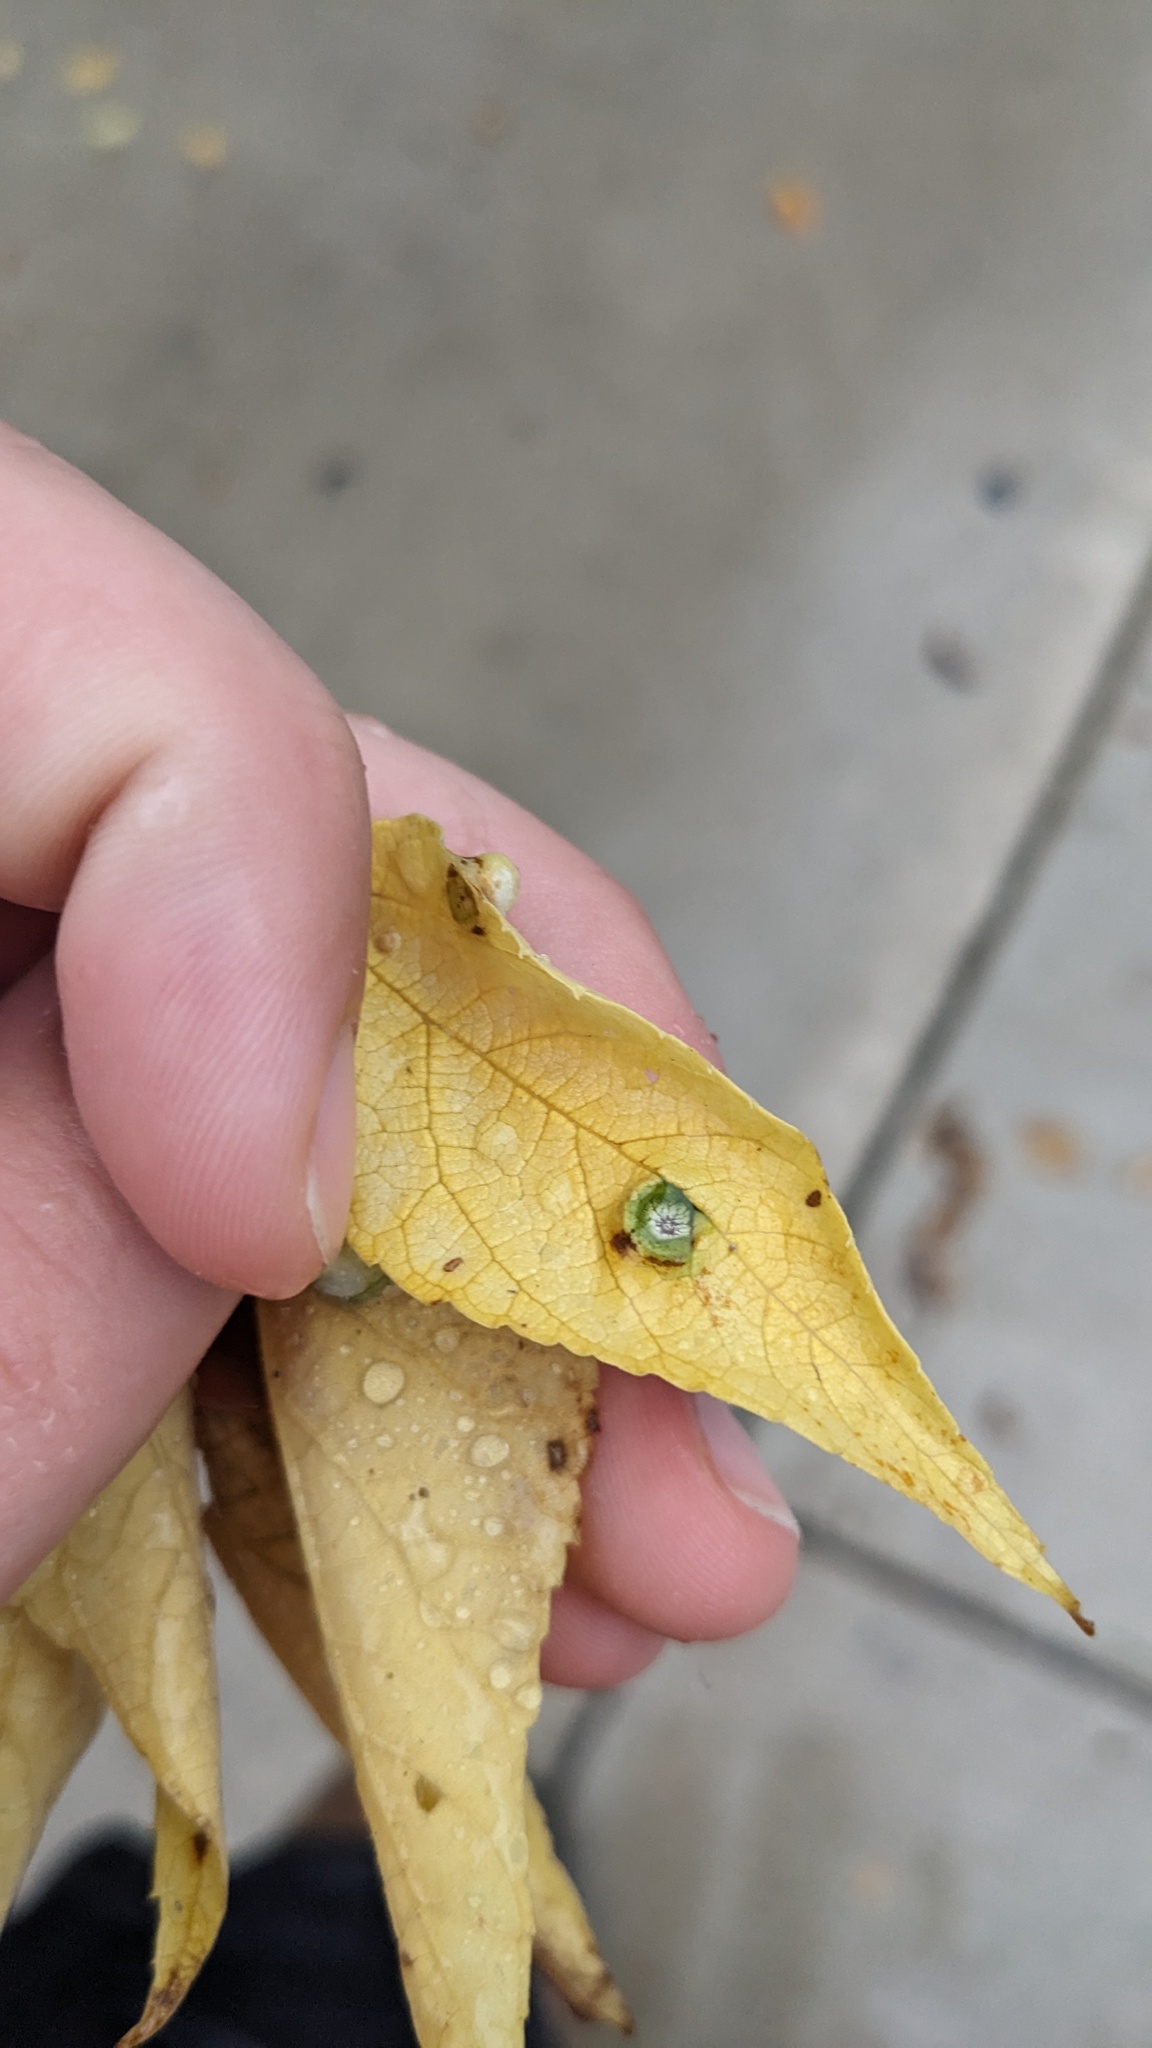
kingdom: Animalia
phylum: Arthropoda
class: Insecta
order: Hemiptera
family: Aphalaridae
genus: Pachypsylla
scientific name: Pachypsylla celtidismamma
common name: Hackberry nipplegall psyllid
